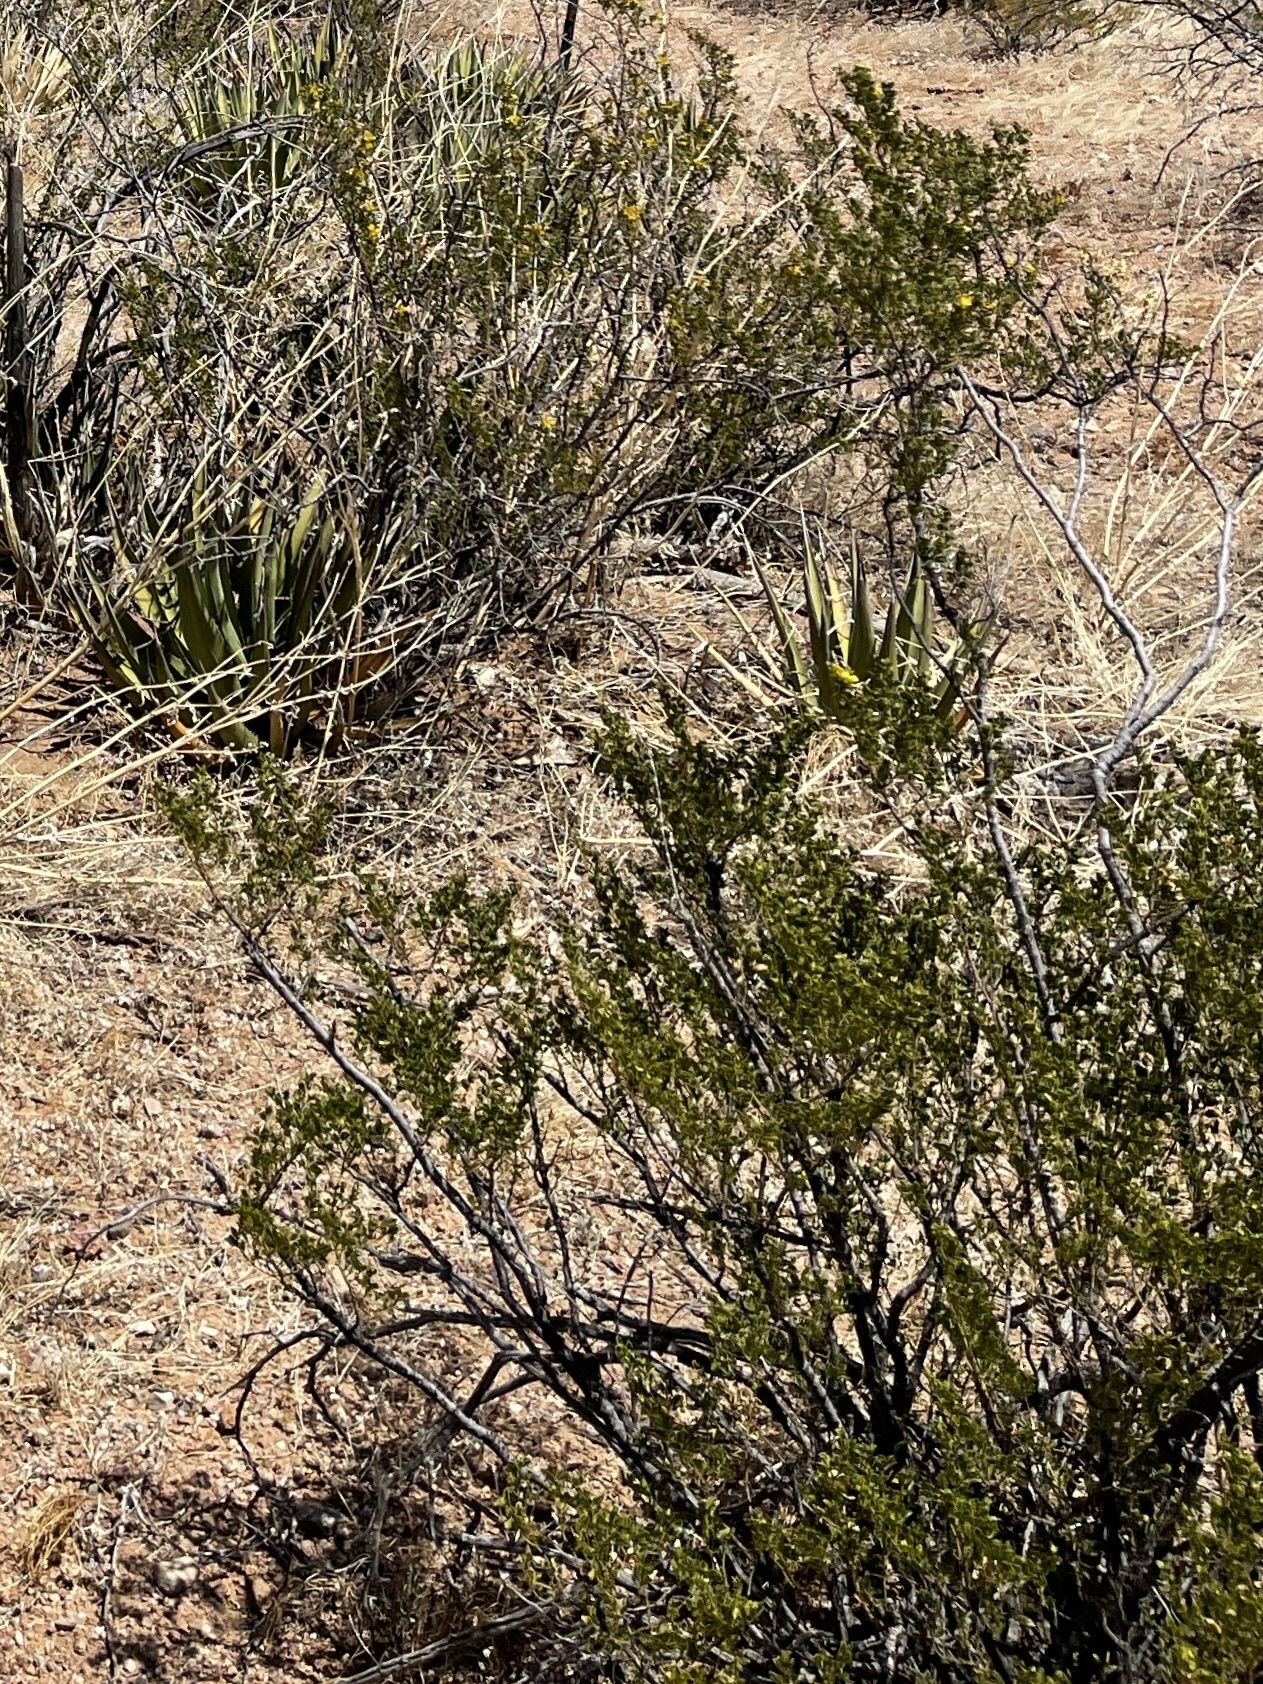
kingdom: Plantae
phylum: Tracheophyta
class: Magnoliopsida
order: Zygophyllales
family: Zygophyllaceae
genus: Larrea
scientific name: Larrea tridentata
